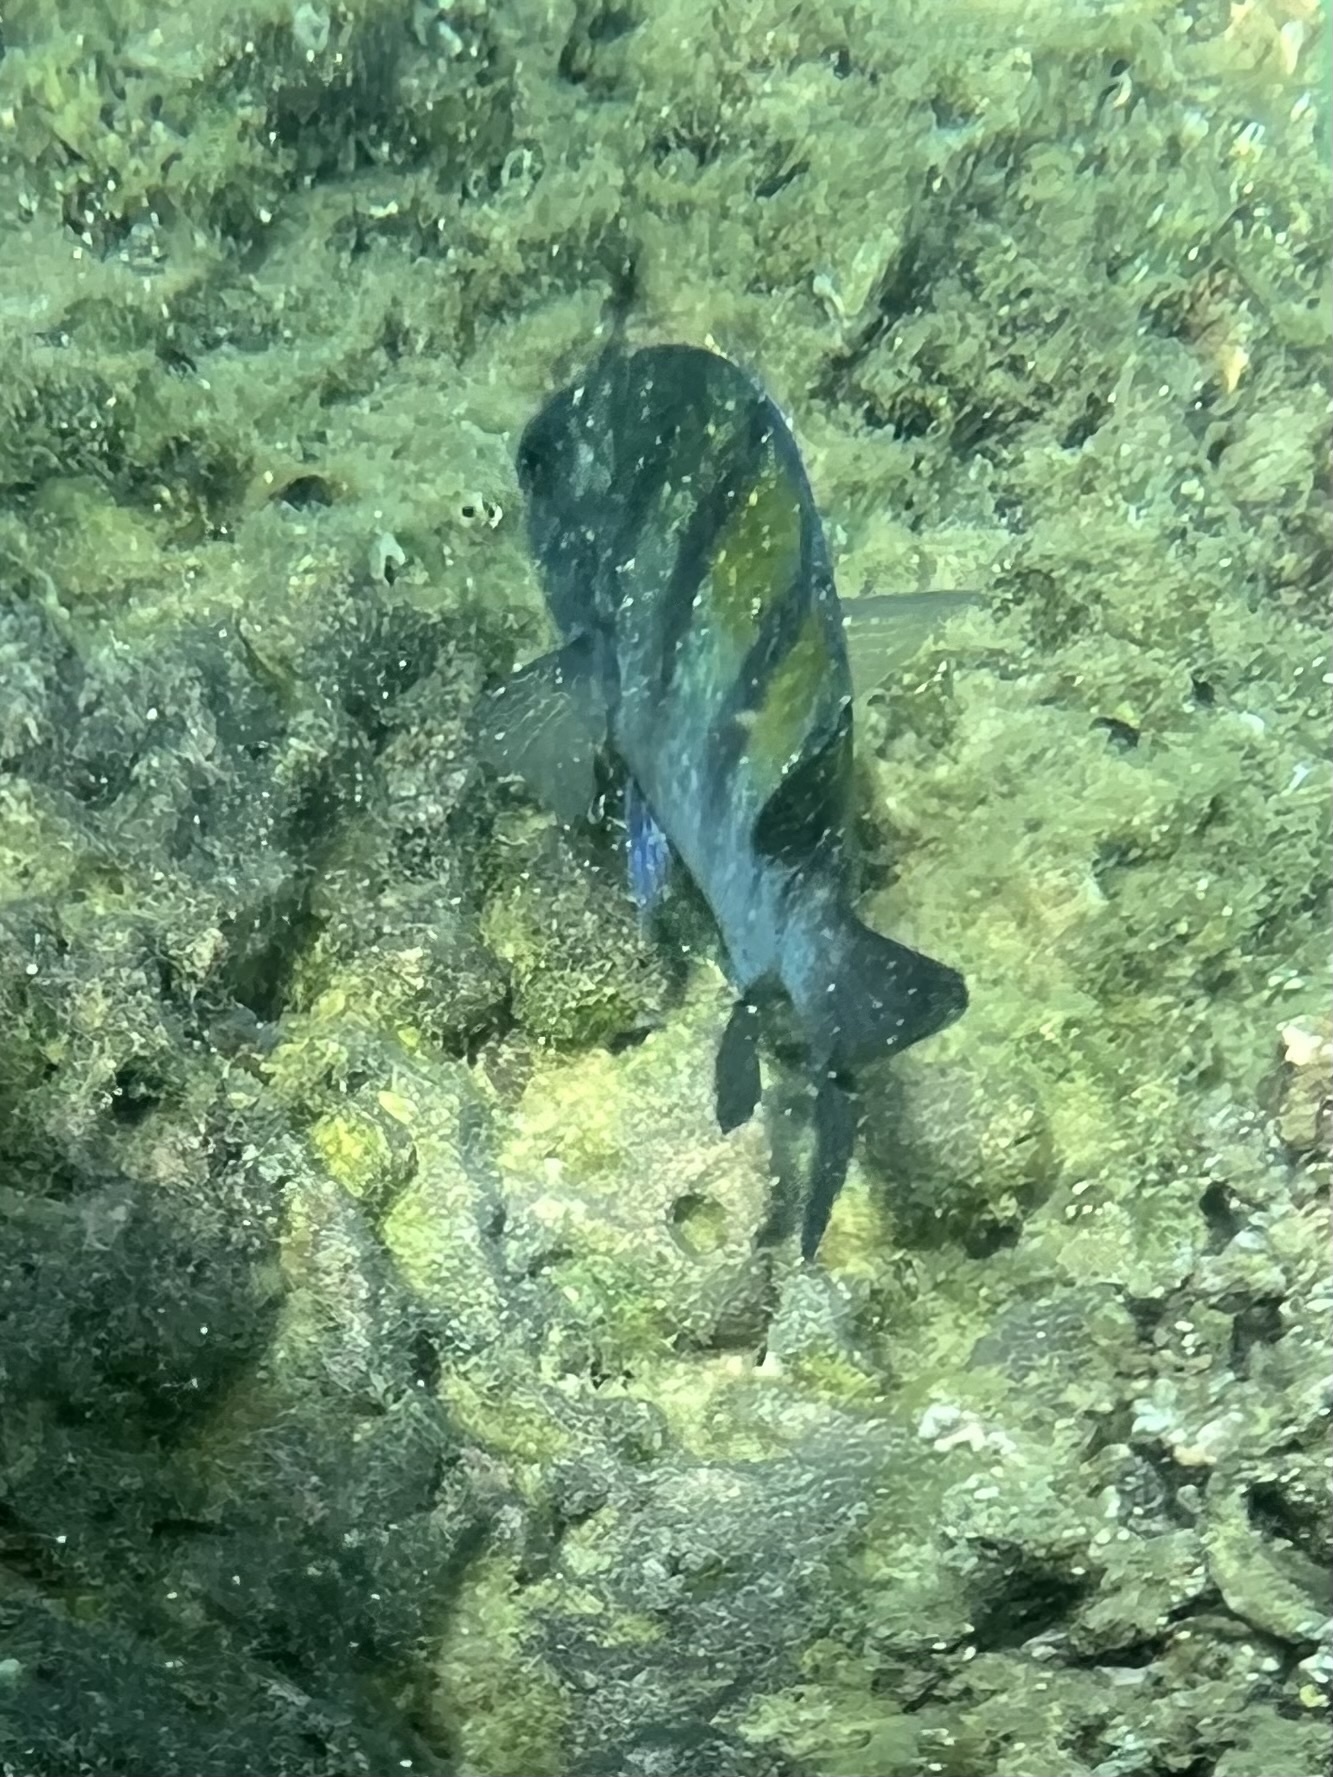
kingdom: Animalia
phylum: Chordata
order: Perciformes
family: Pomacentridae
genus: Abudefduf
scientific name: Abudefduf troschelii
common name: Panamic sergeant major
